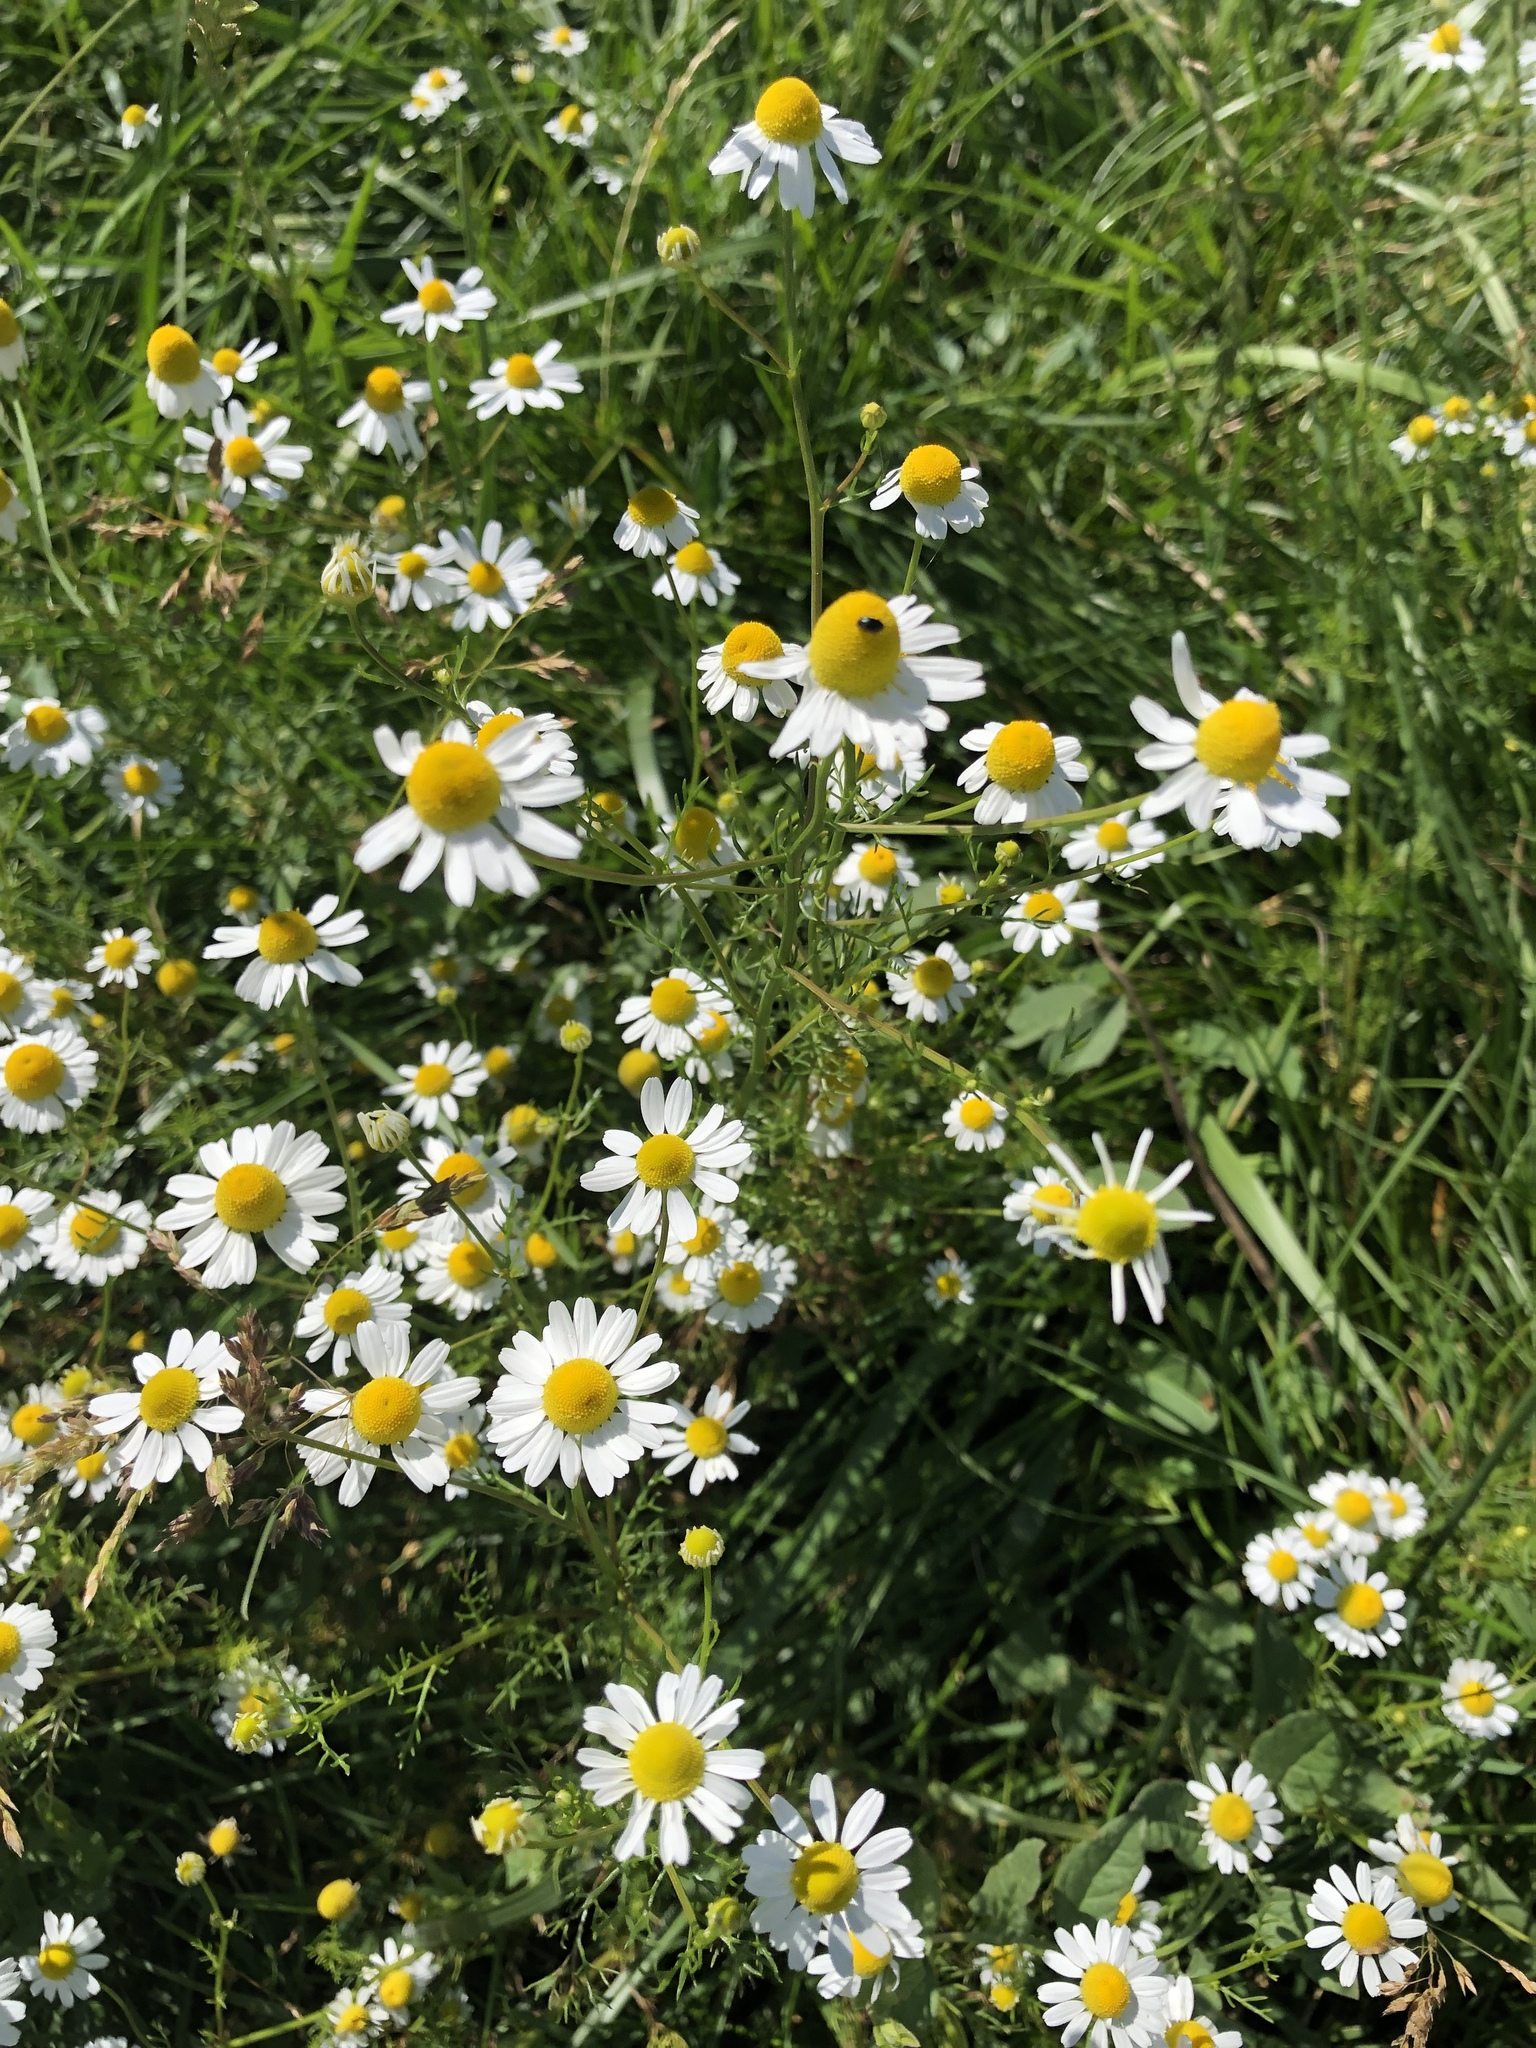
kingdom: Plantae
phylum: Tracheophyta
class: Magnoliopsida
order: Asterales
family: Asteraceae
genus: Matricaria
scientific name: Matricaria chamomilla
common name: Scented mayweed
